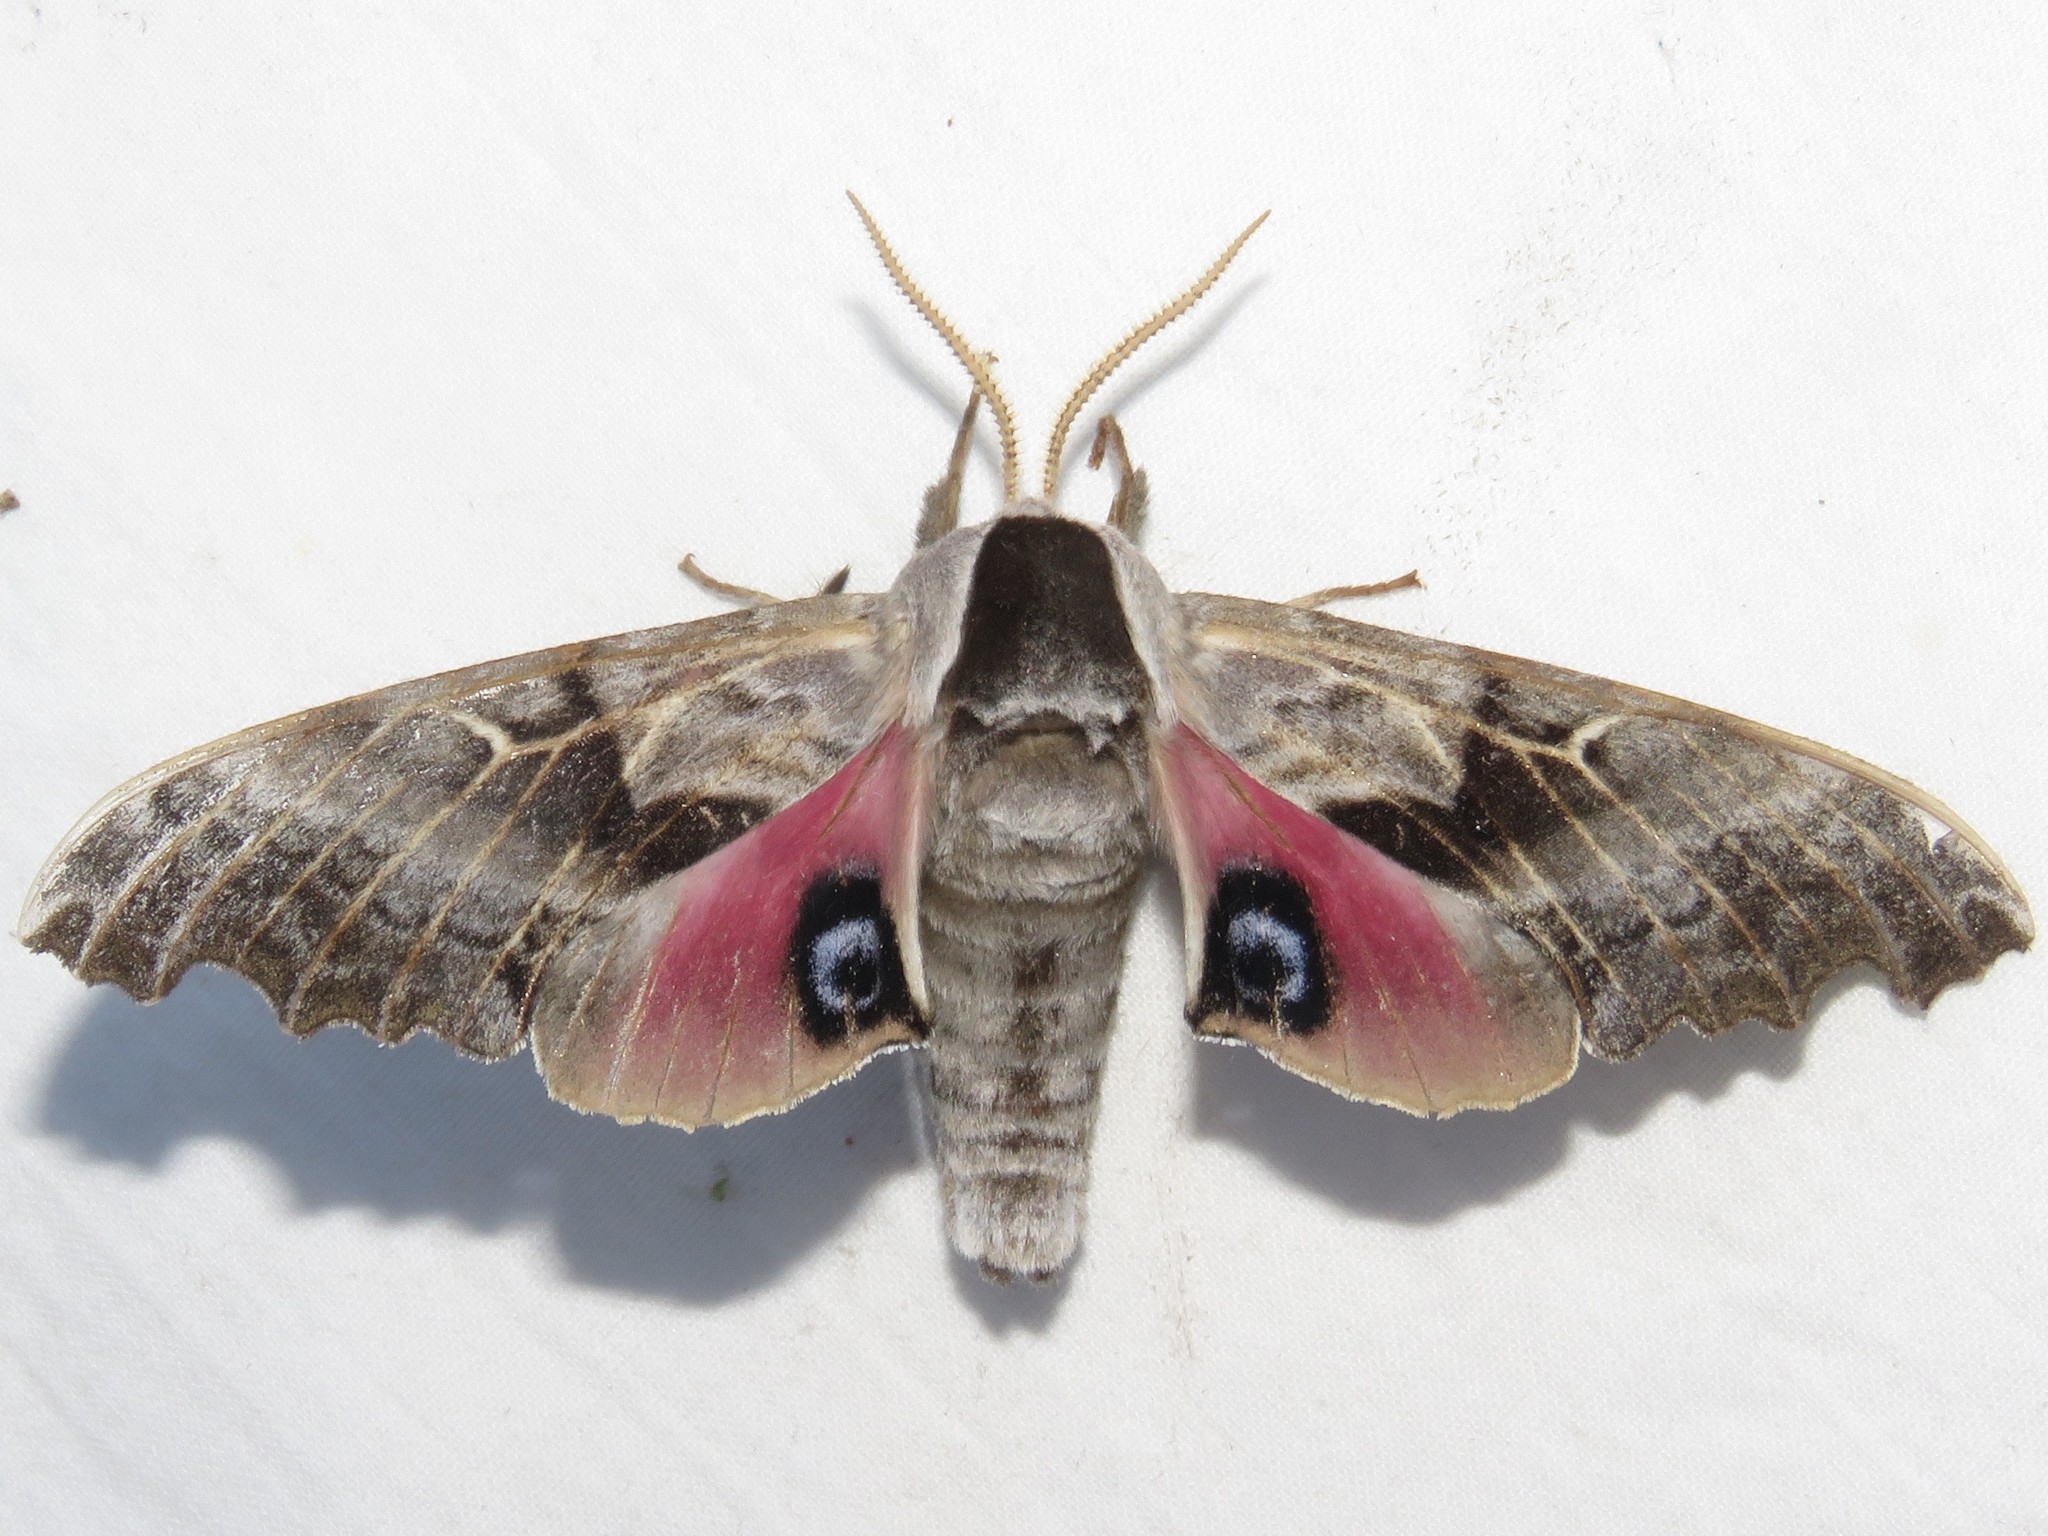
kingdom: Animalia
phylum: Arthropoda
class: Insecta
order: Lepidoptera
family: Sphingidae
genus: Smerinthus
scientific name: Smerinthus cerisyi
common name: Cerisy's sphinx moth
